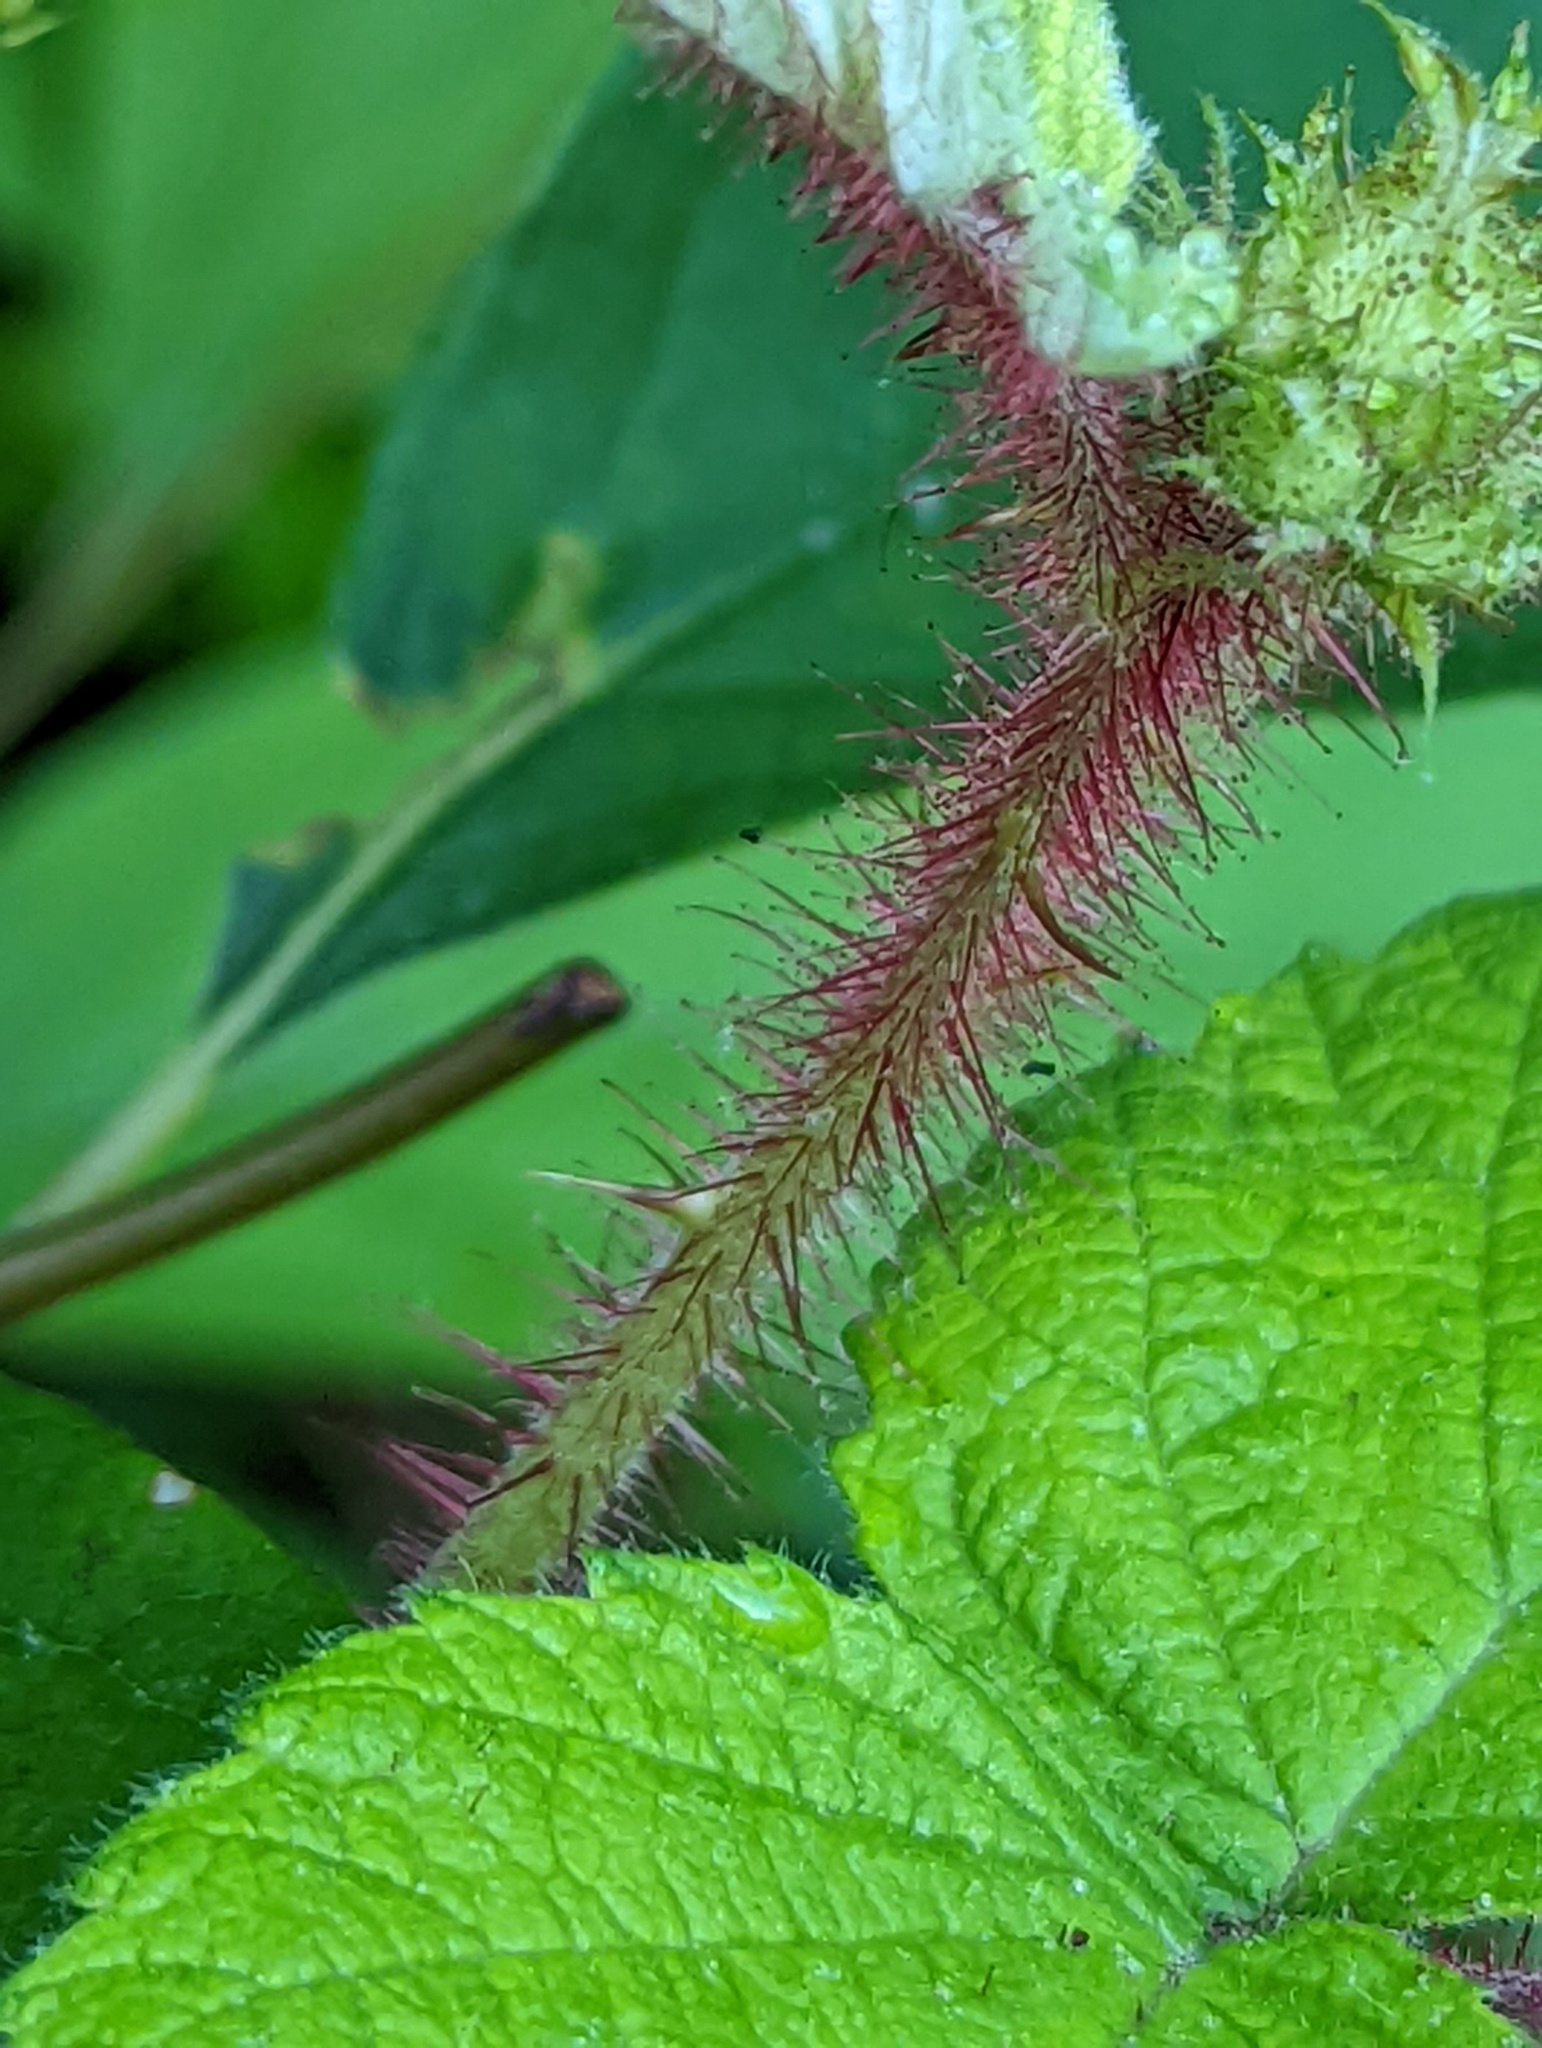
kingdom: Plantae
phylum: Tracheophyta
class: Magnoliopsida
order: Rosales
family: Rosaceae
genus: Rubus
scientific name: Rubus phoenicolasius
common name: Japanese wineberry
